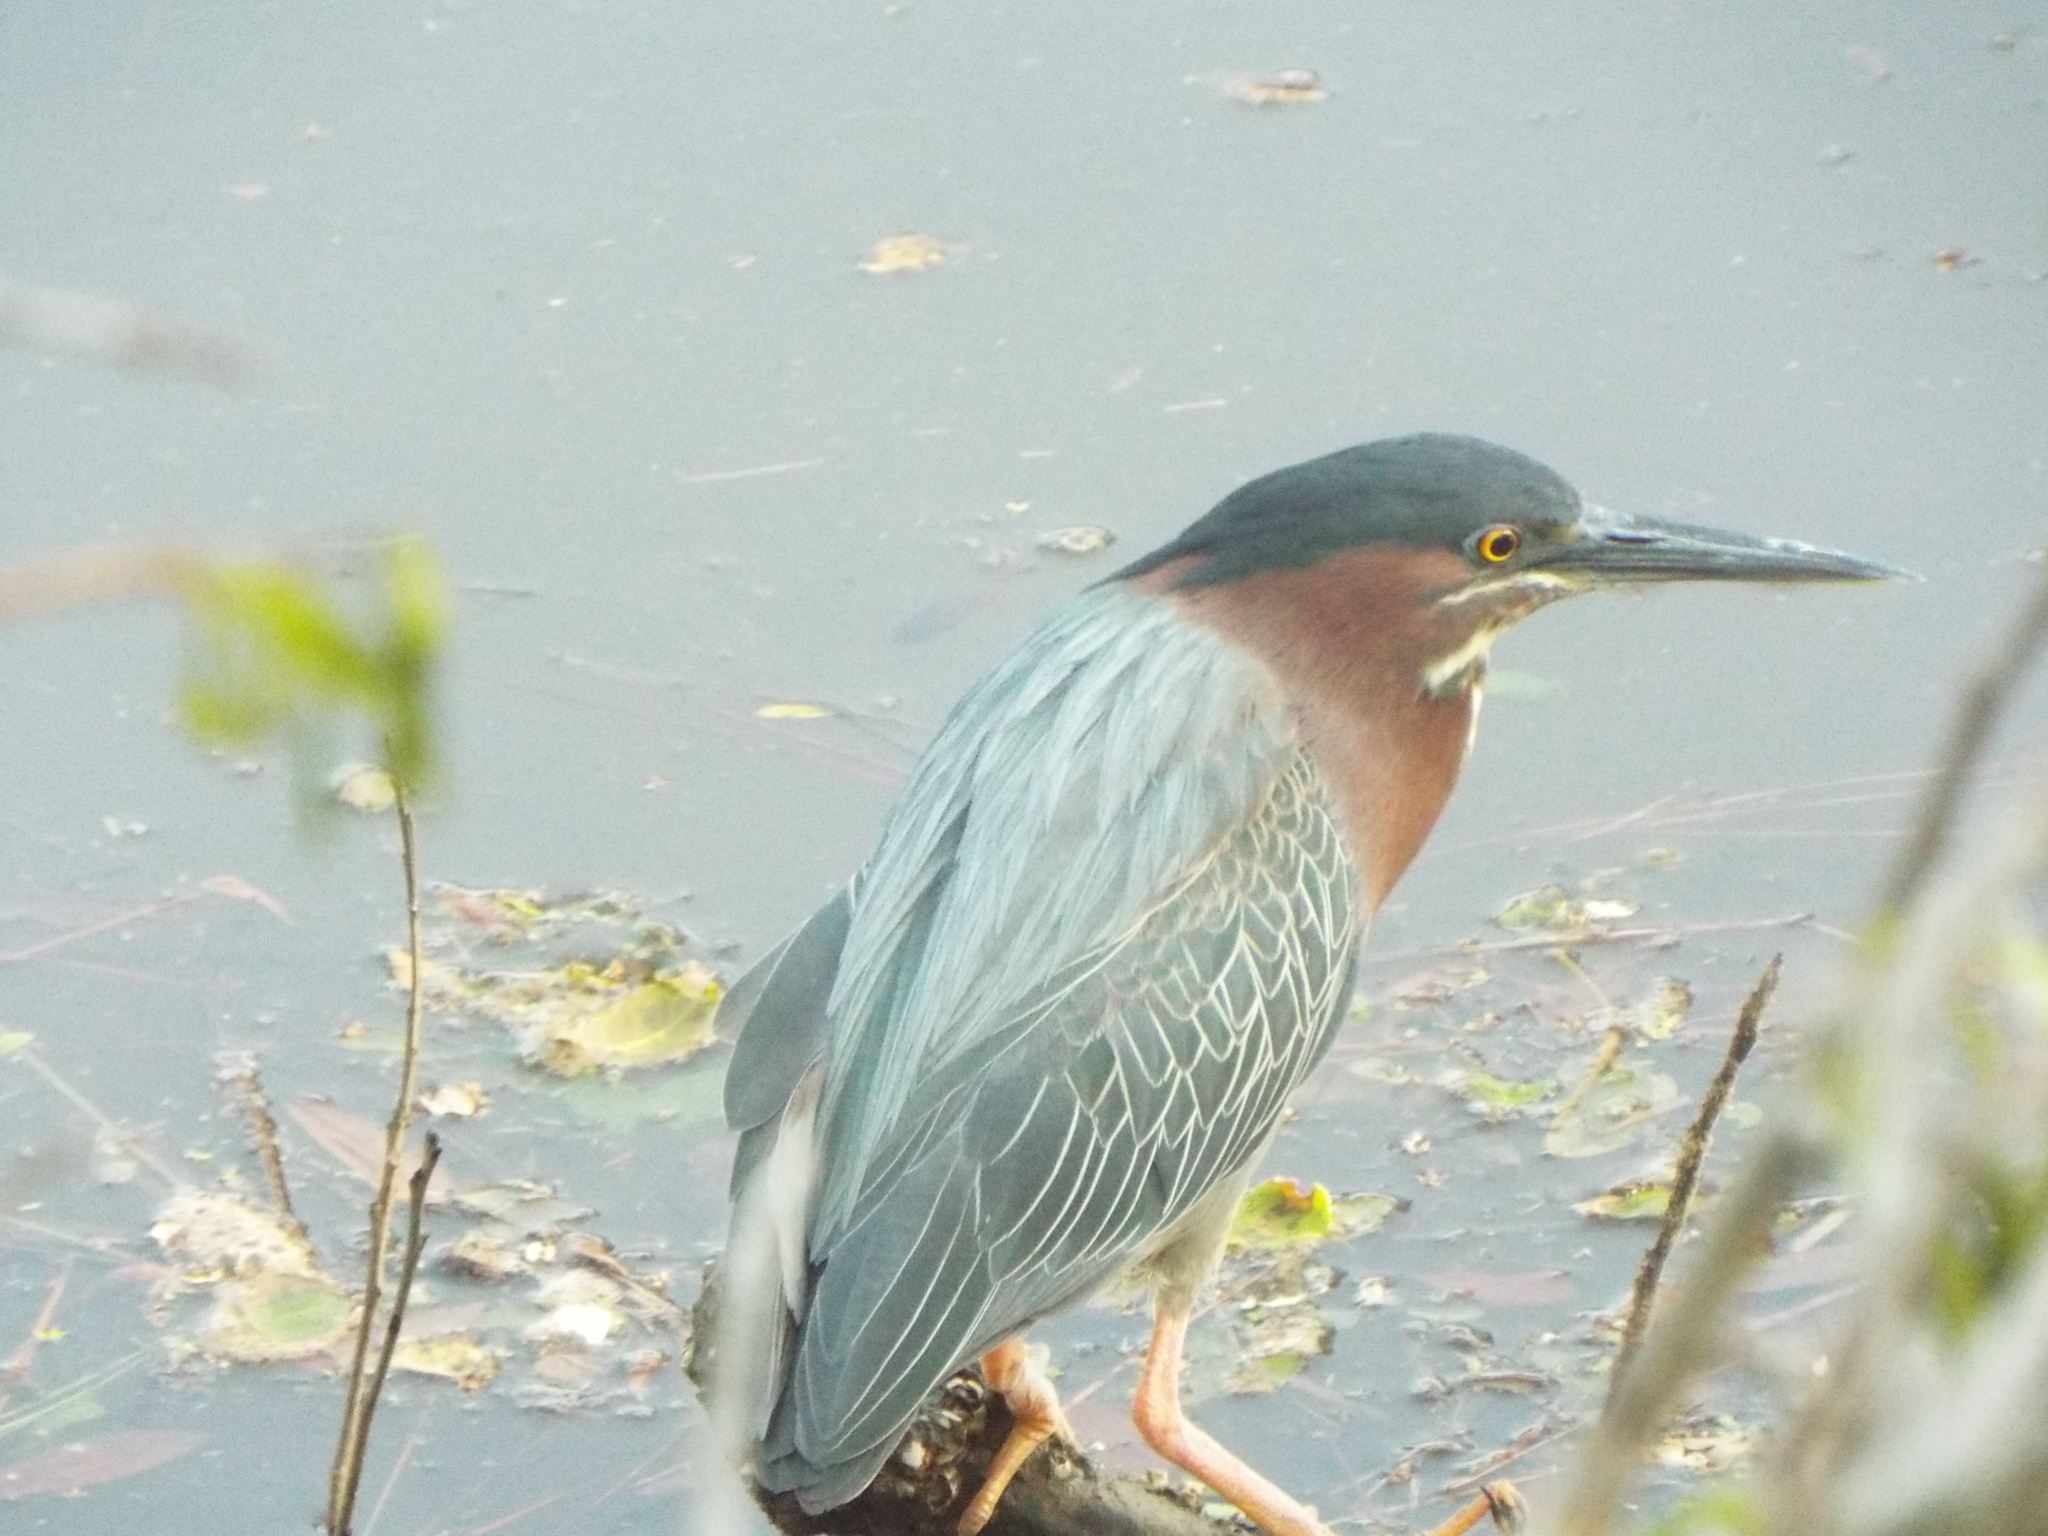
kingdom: Animalia
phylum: Chordata
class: Aves
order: Pelecaniformes
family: Ardeidae
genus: Butorides
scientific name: Butorides virescens
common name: Green heron
